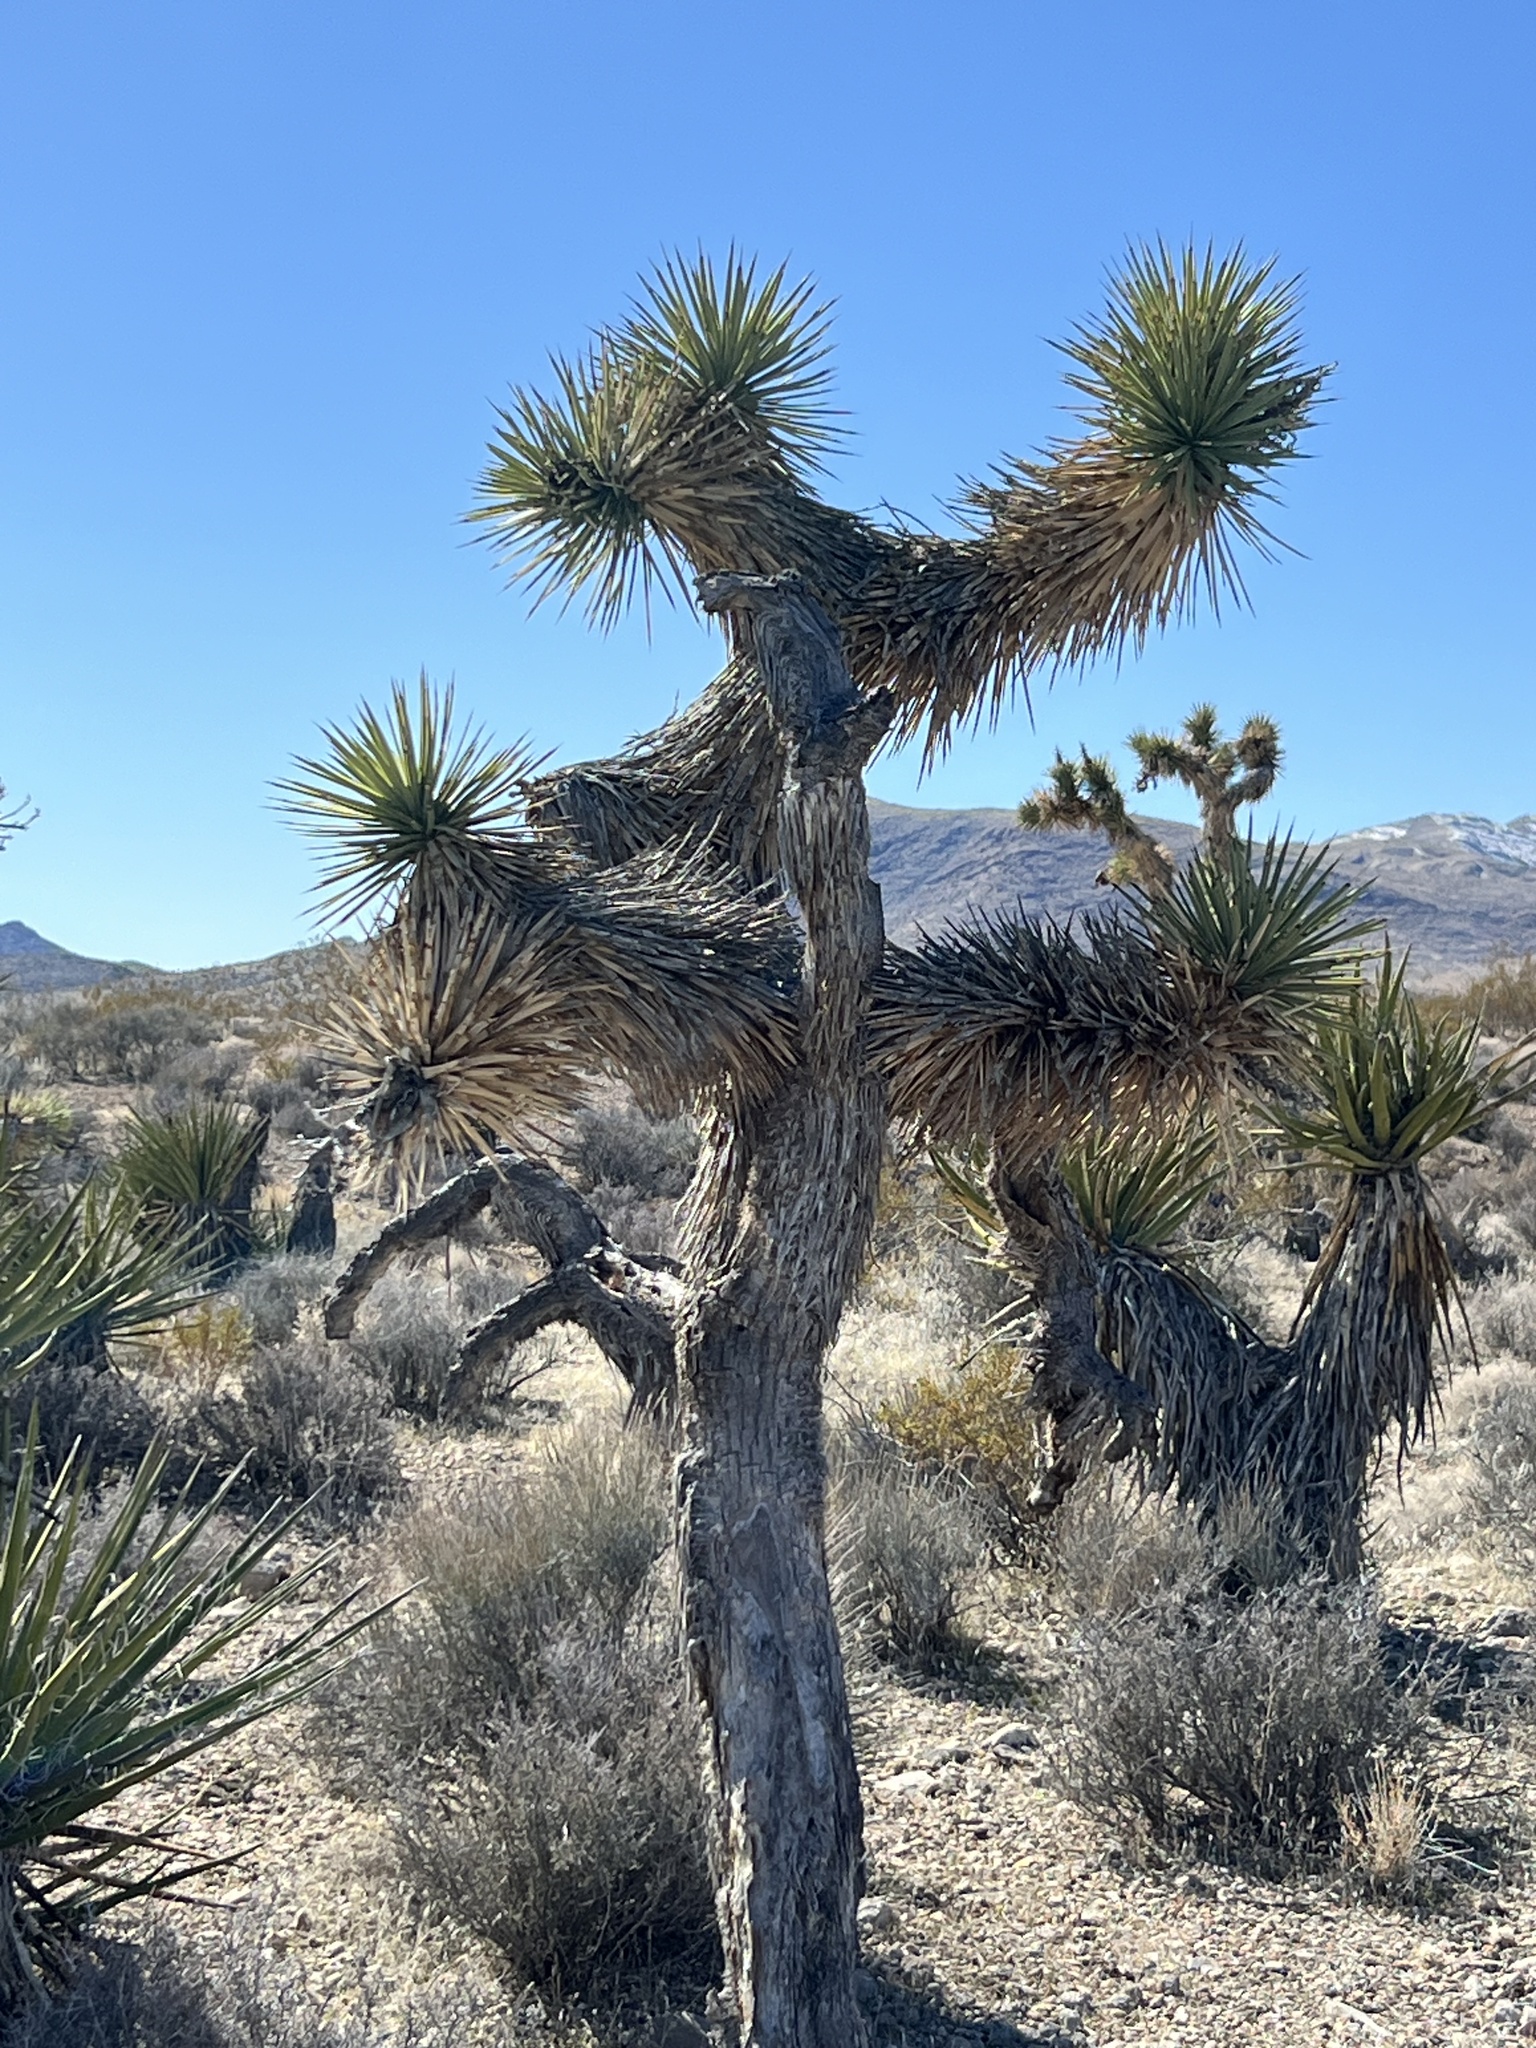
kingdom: Plantae
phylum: Tracheophyta
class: Liliopsida
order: Asparagales
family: Asparagaceae
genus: Yucca
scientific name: Yucca brevifolia
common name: Joshua tree
